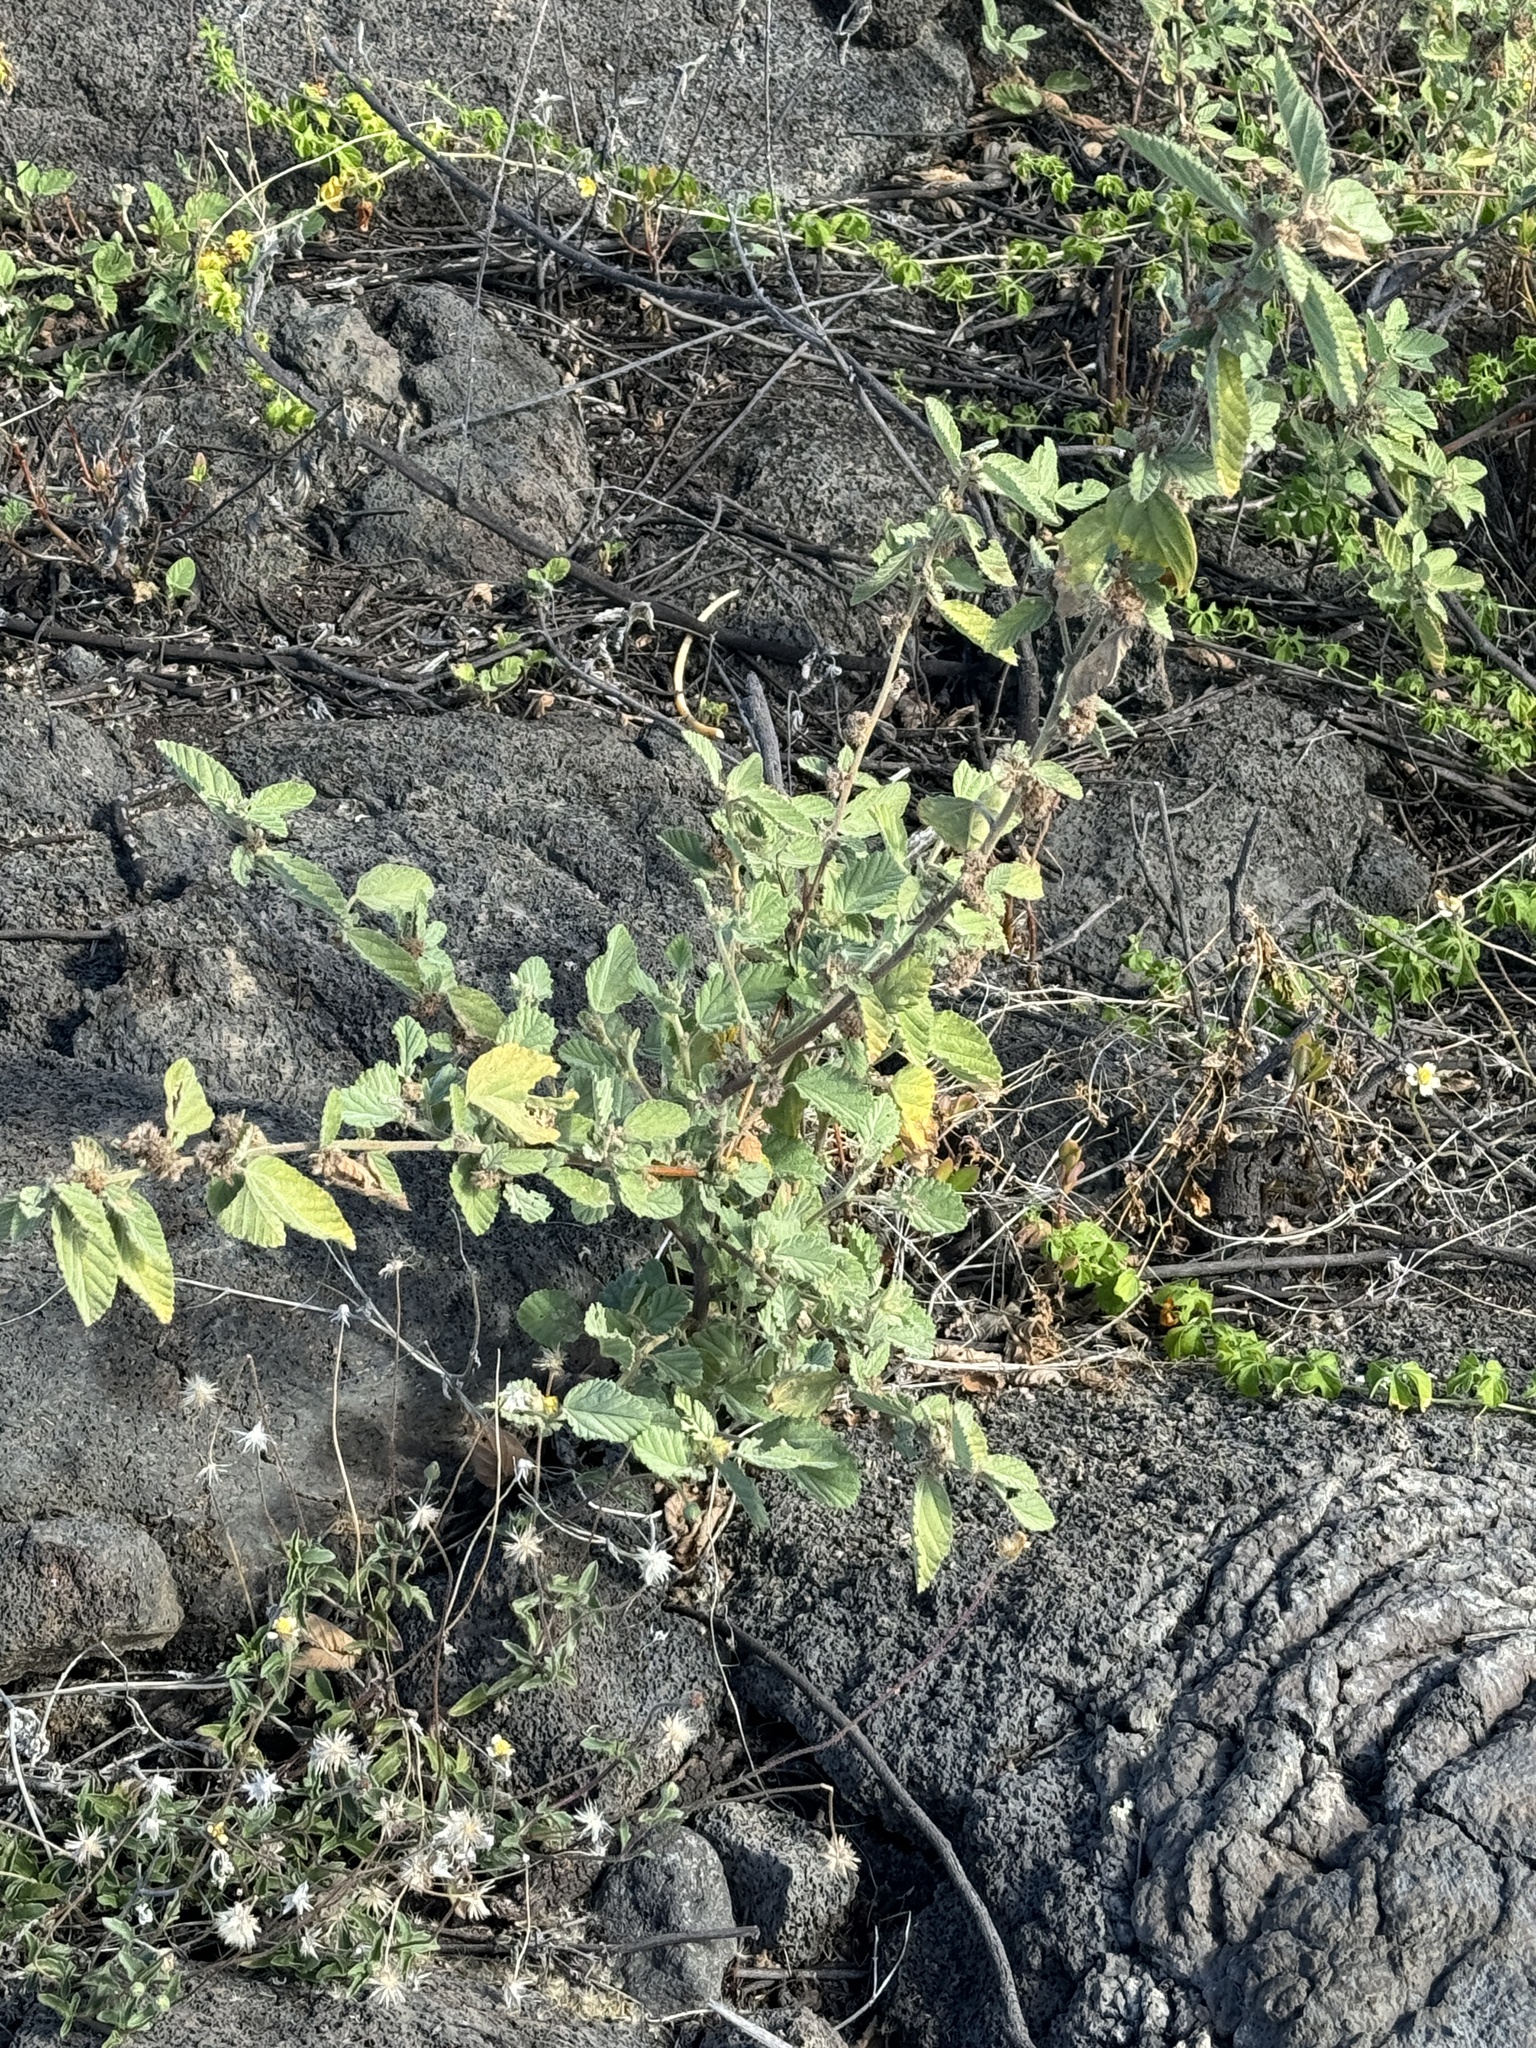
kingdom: Plantae
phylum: Tracheophyta
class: Magnoliopsida
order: Malvales
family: Malvaceae
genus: Waltheria
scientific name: Waltheria indica
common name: Leather-coat
